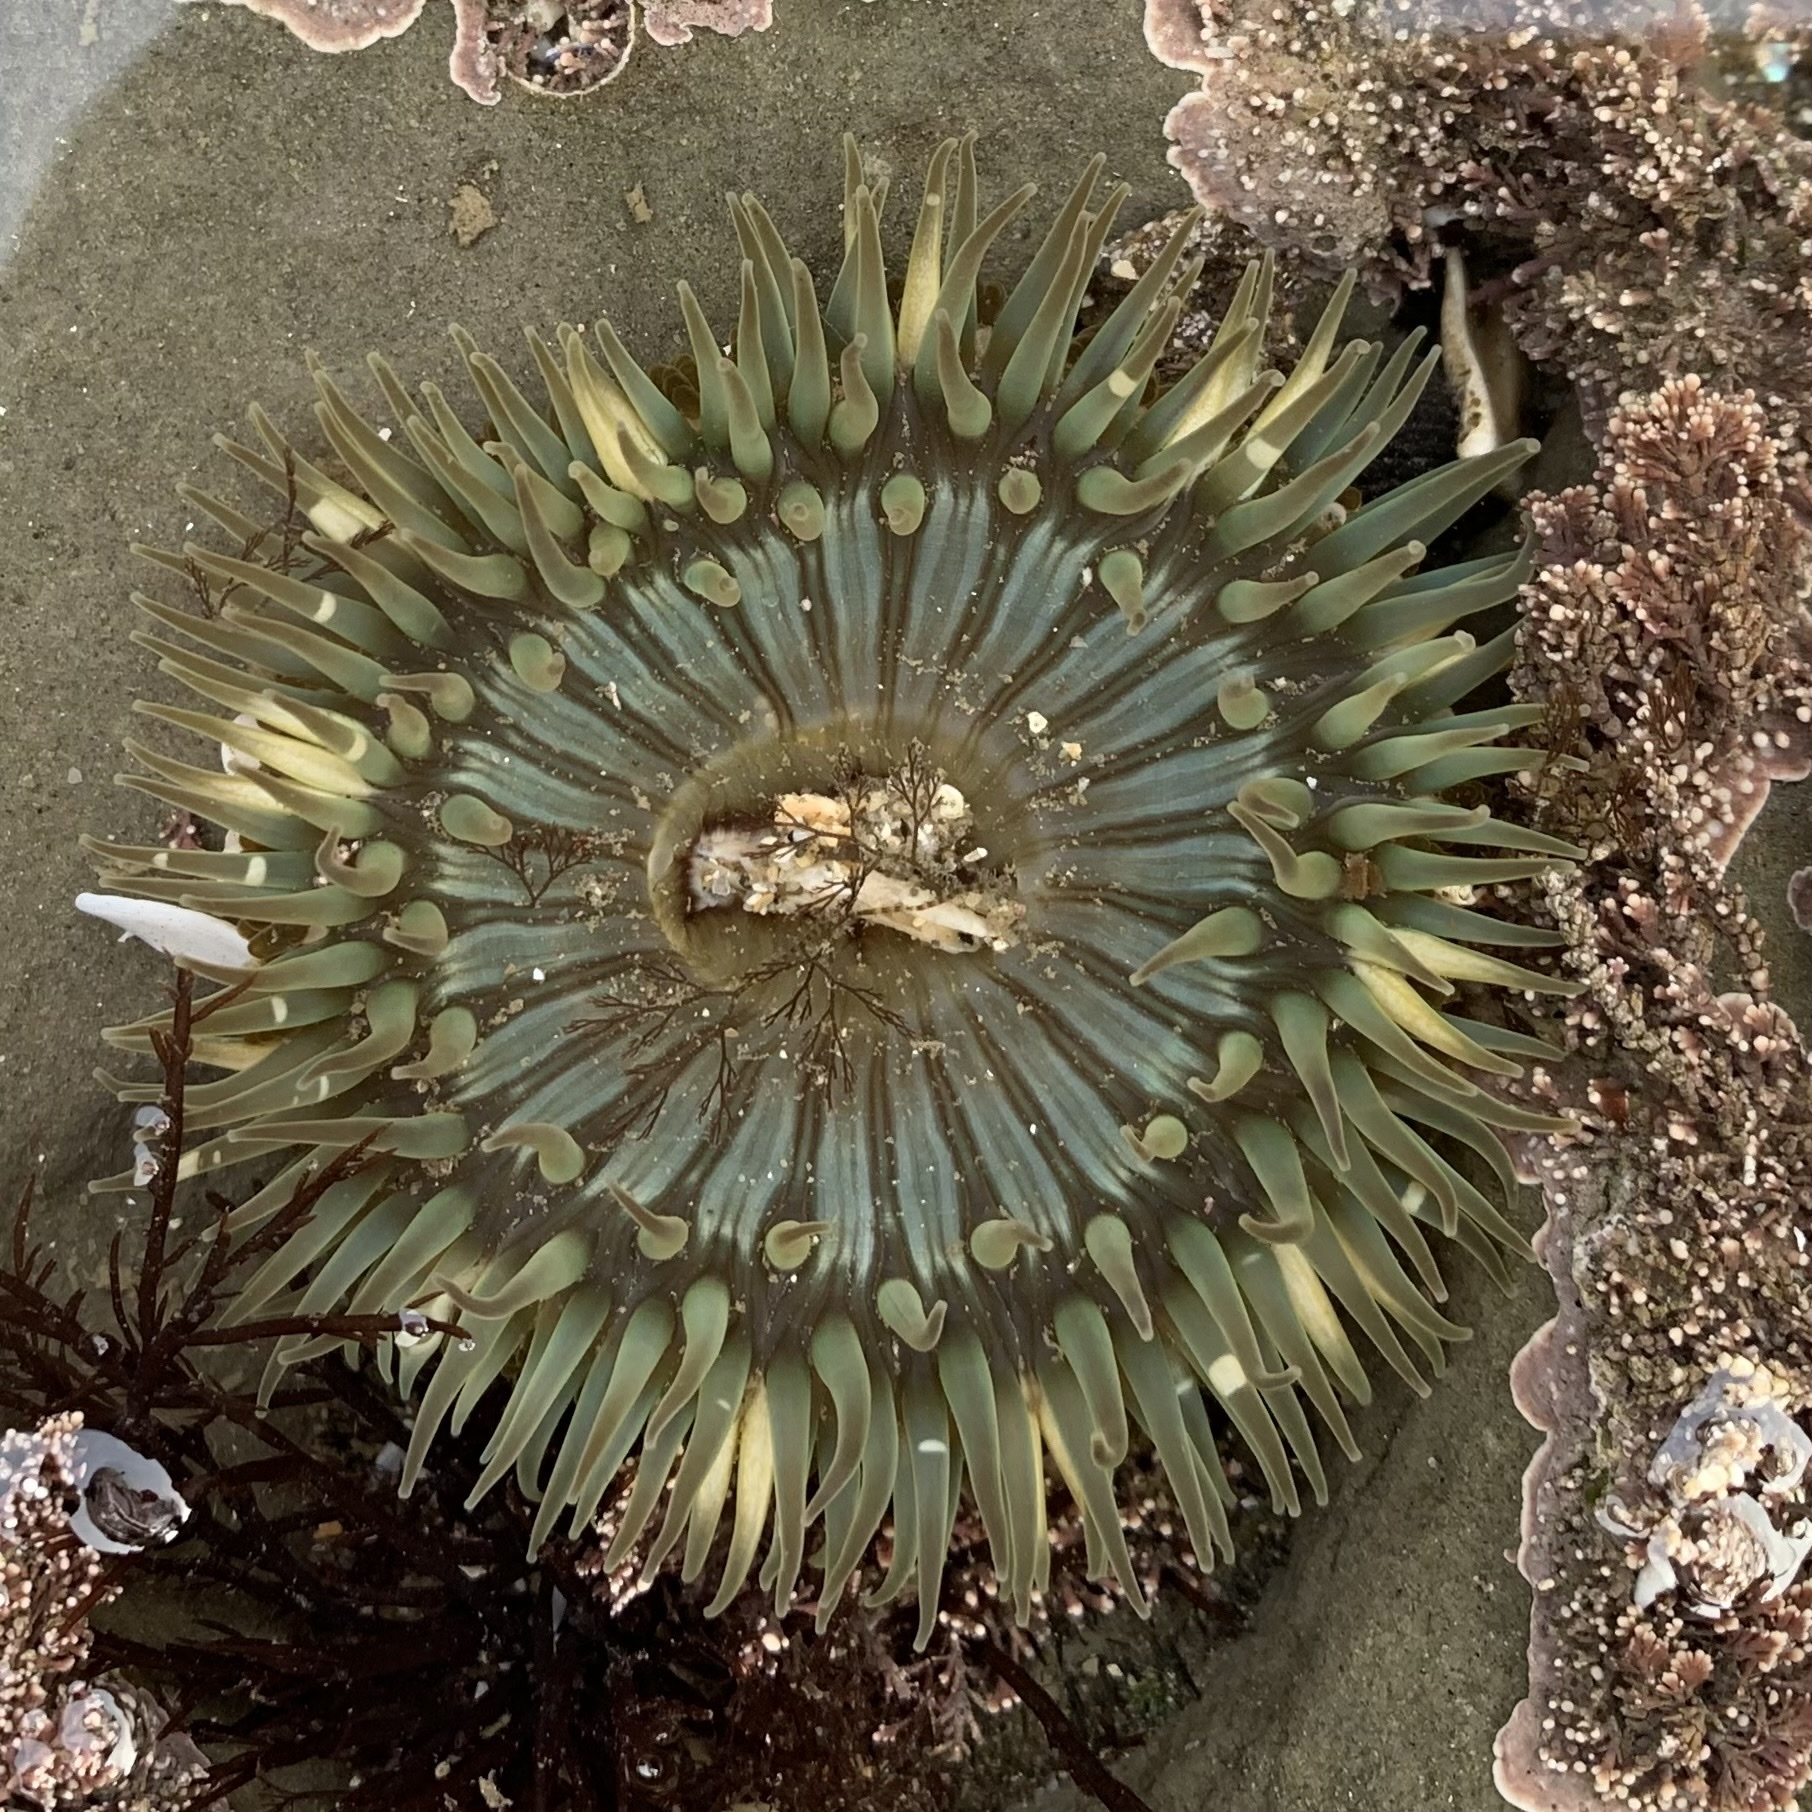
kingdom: Animalia
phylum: Cnidaria
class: Anthozoa
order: Actiniaria
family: Actiniidae
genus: Anthopleura
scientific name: Anthopleura sola
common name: Sun anemone
